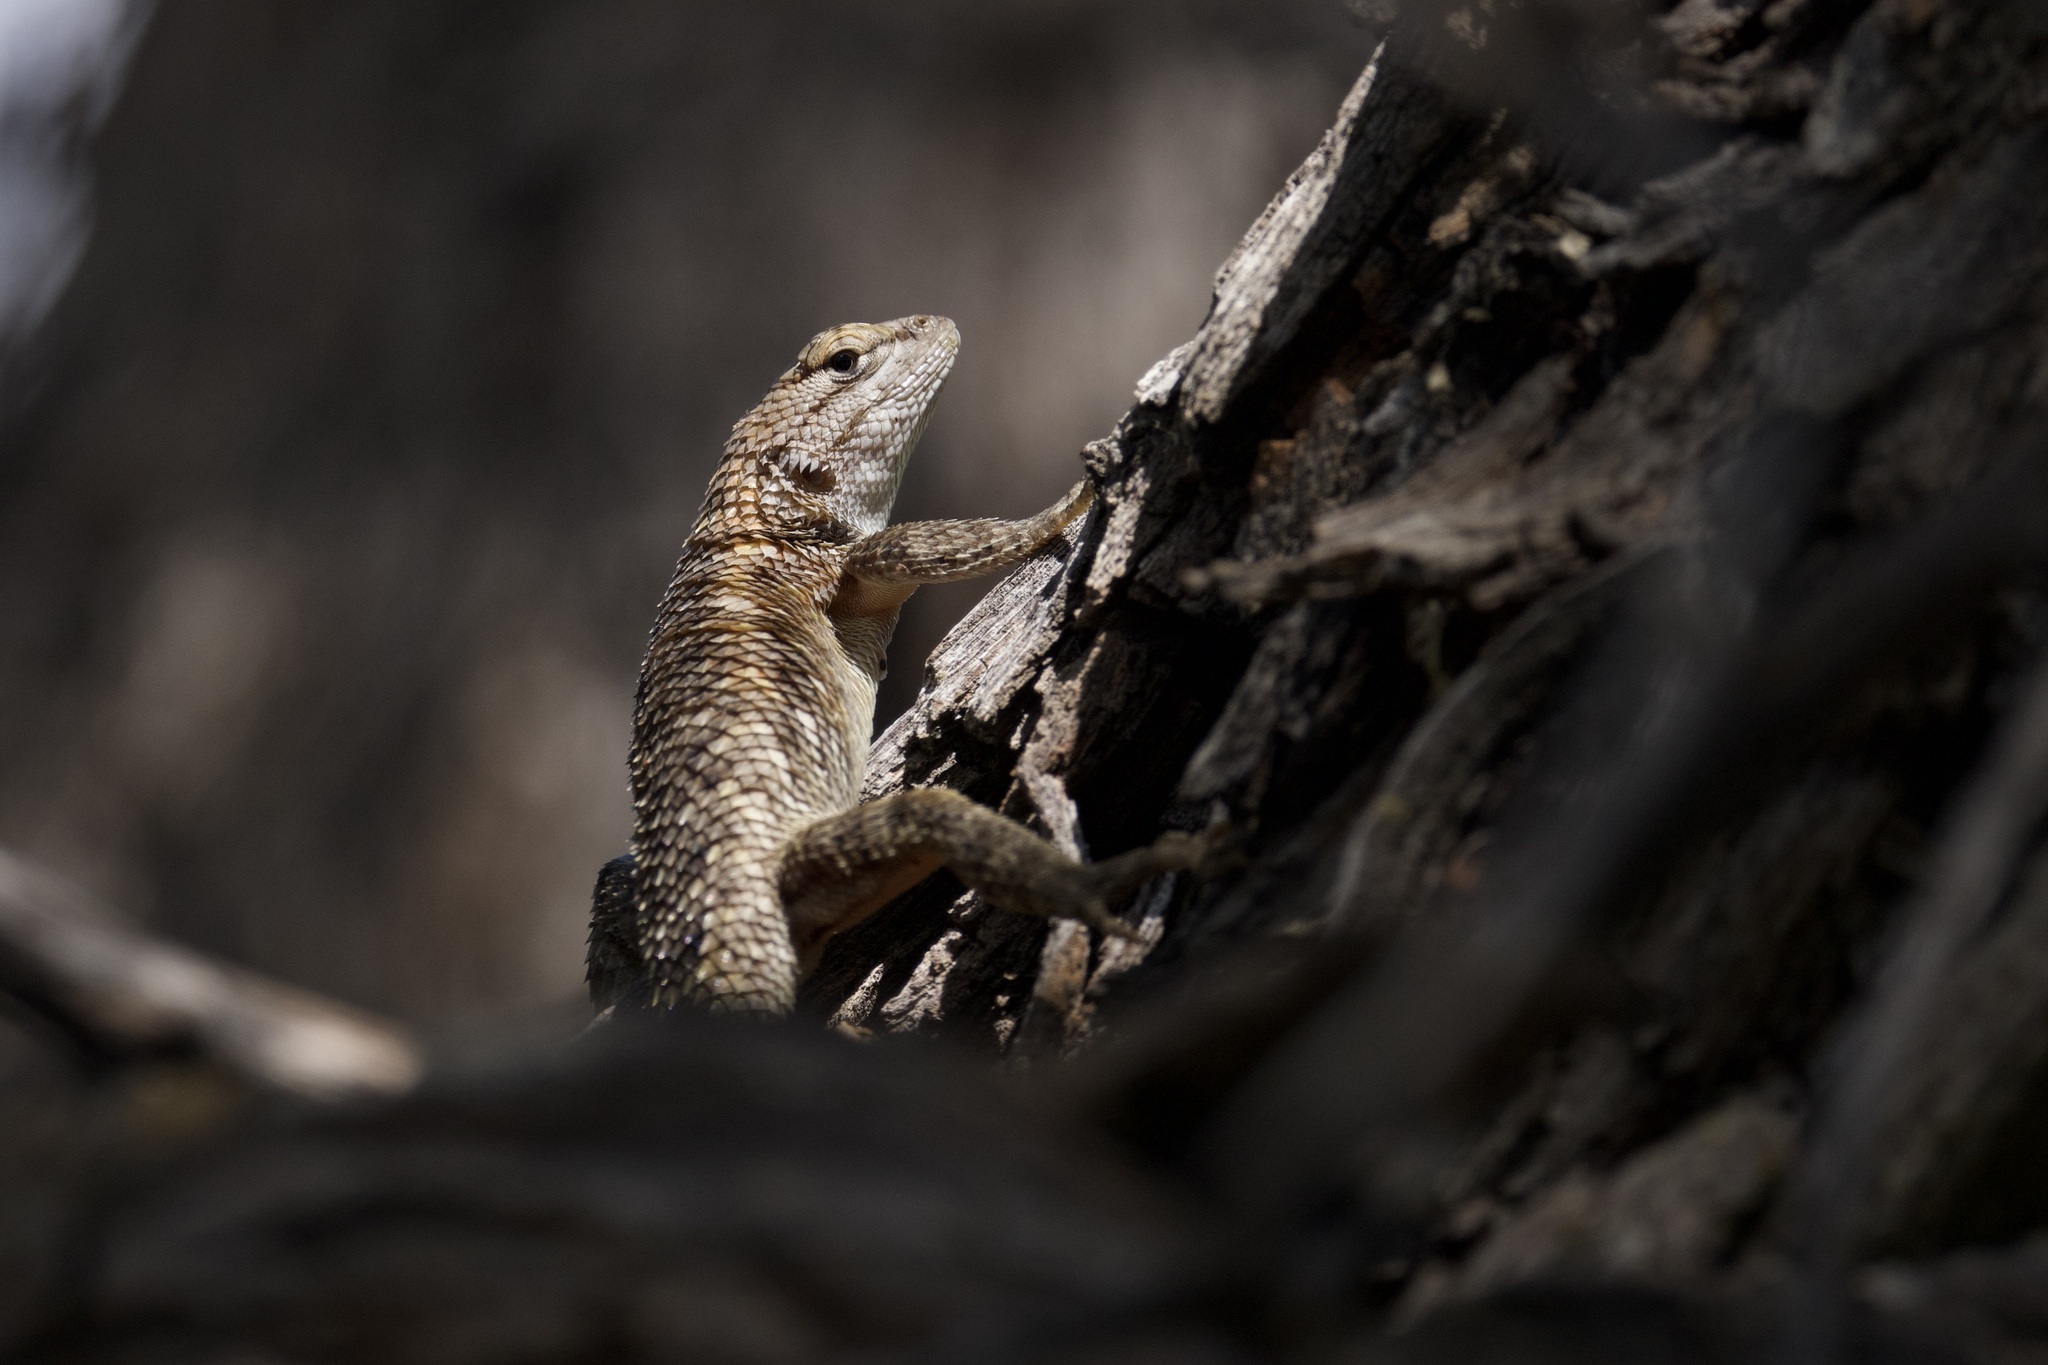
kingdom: Animalia
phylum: Chordata
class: Squamata
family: Phrynosomatidae
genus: Sceloporus
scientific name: Sceloporus magister
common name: Desert spiny lizard
